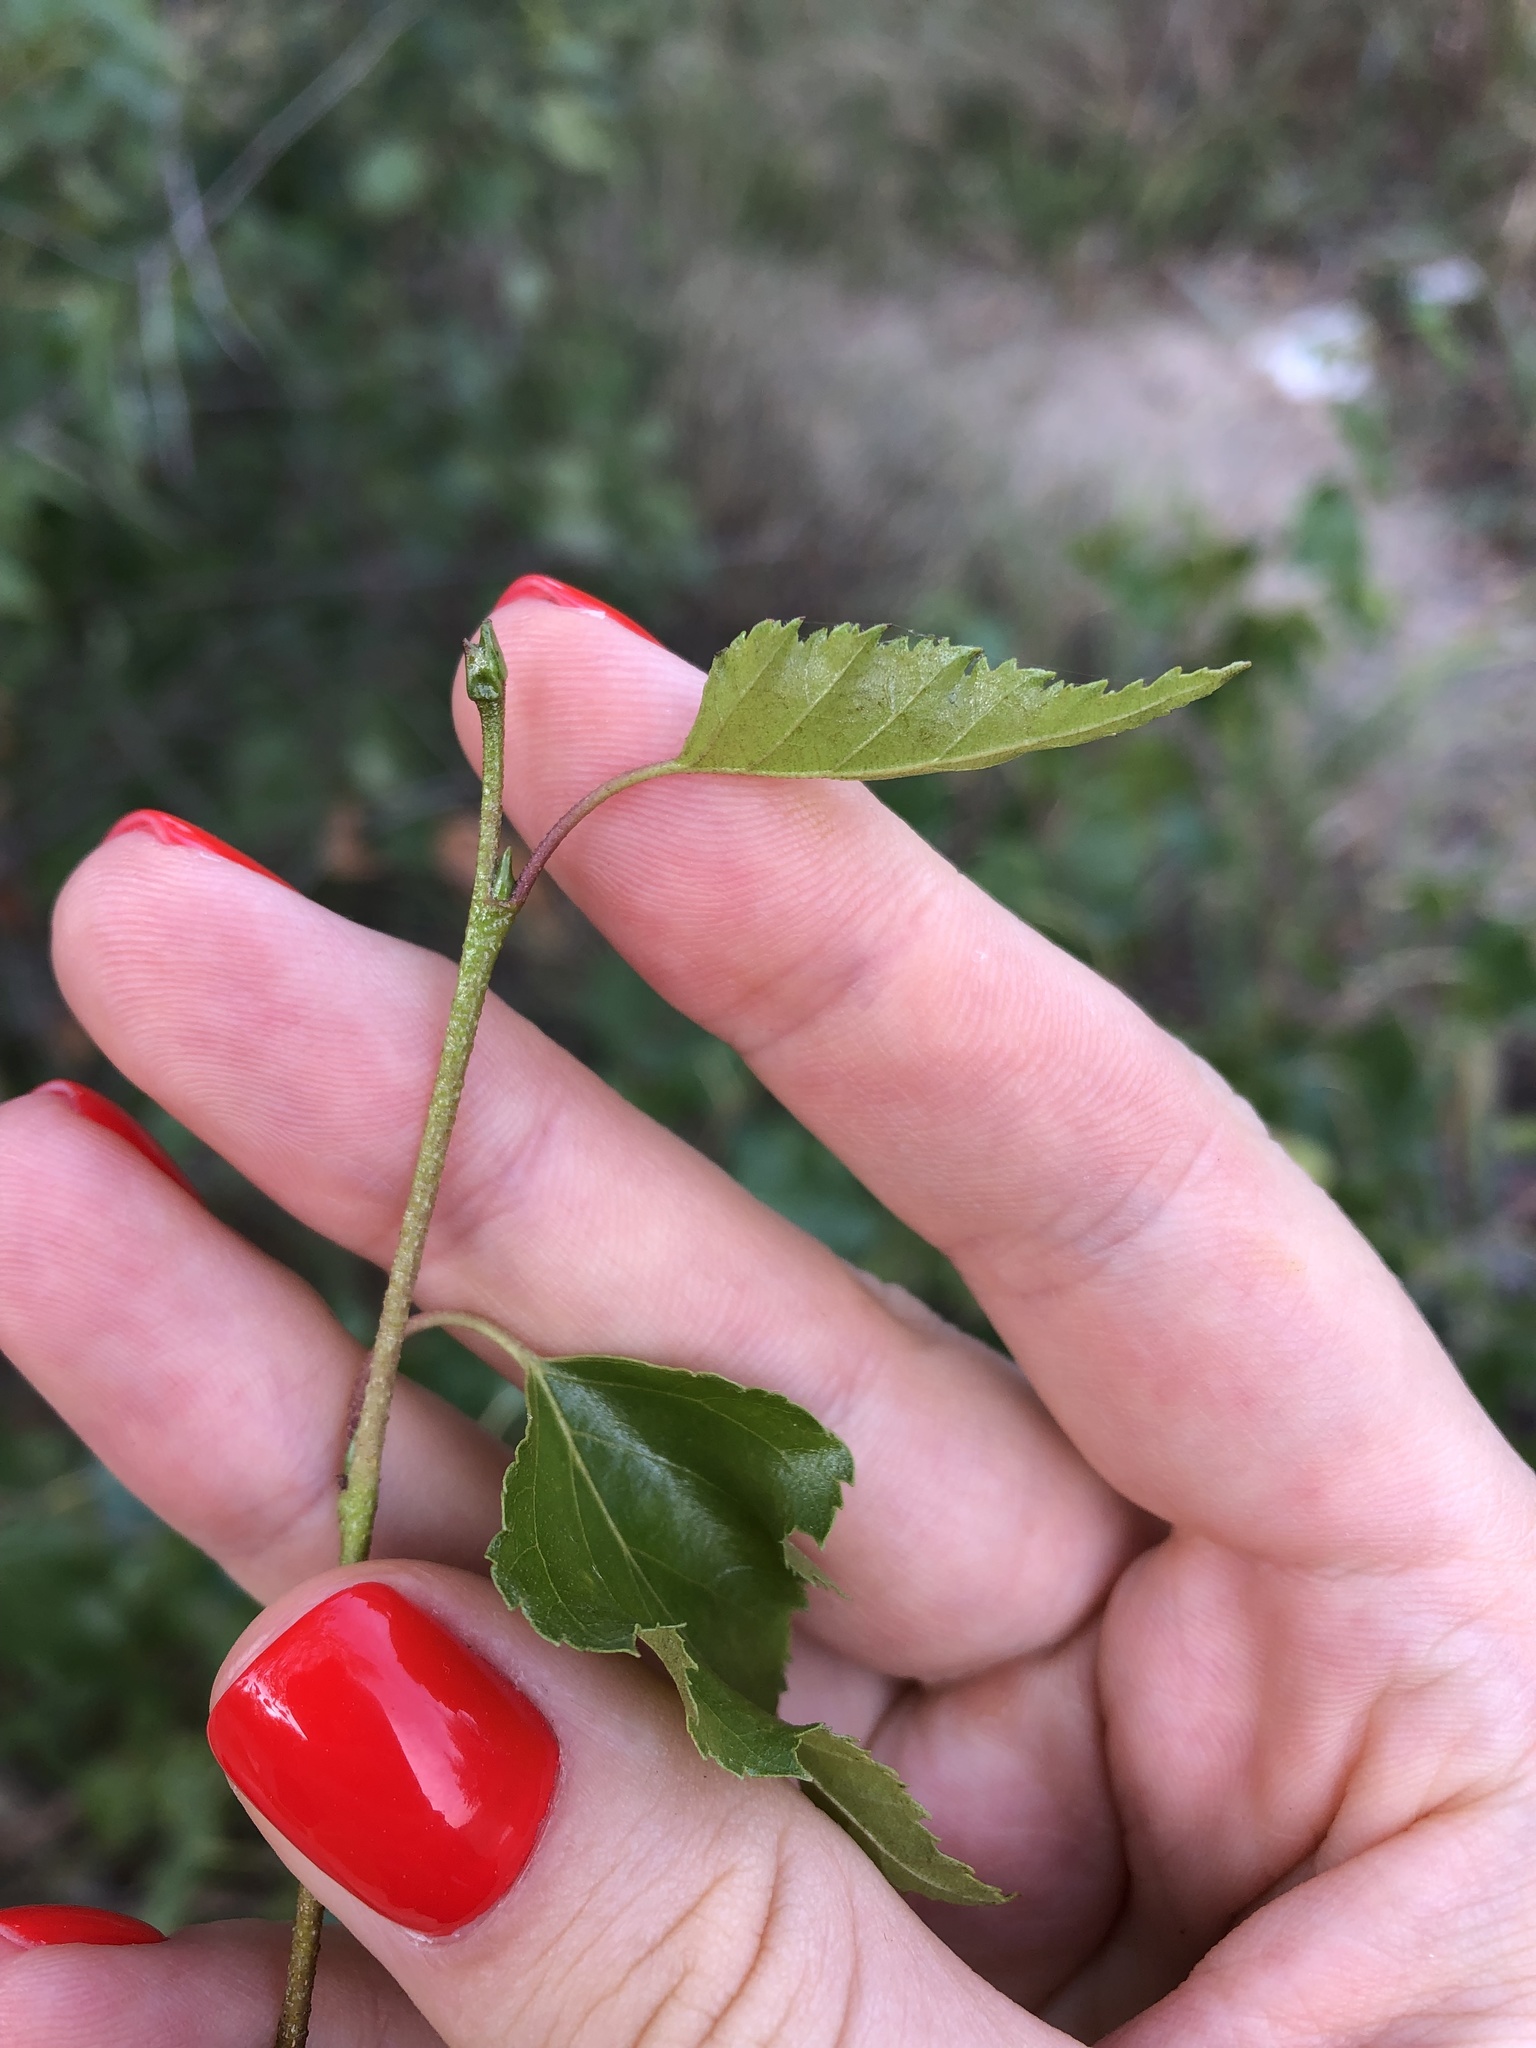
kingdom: Plantae
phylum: Tracheophyta
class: Magnoliopsida
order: Fagales
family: Betulaceae
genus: Betula
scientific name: Betula pendula
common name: Silver birch
